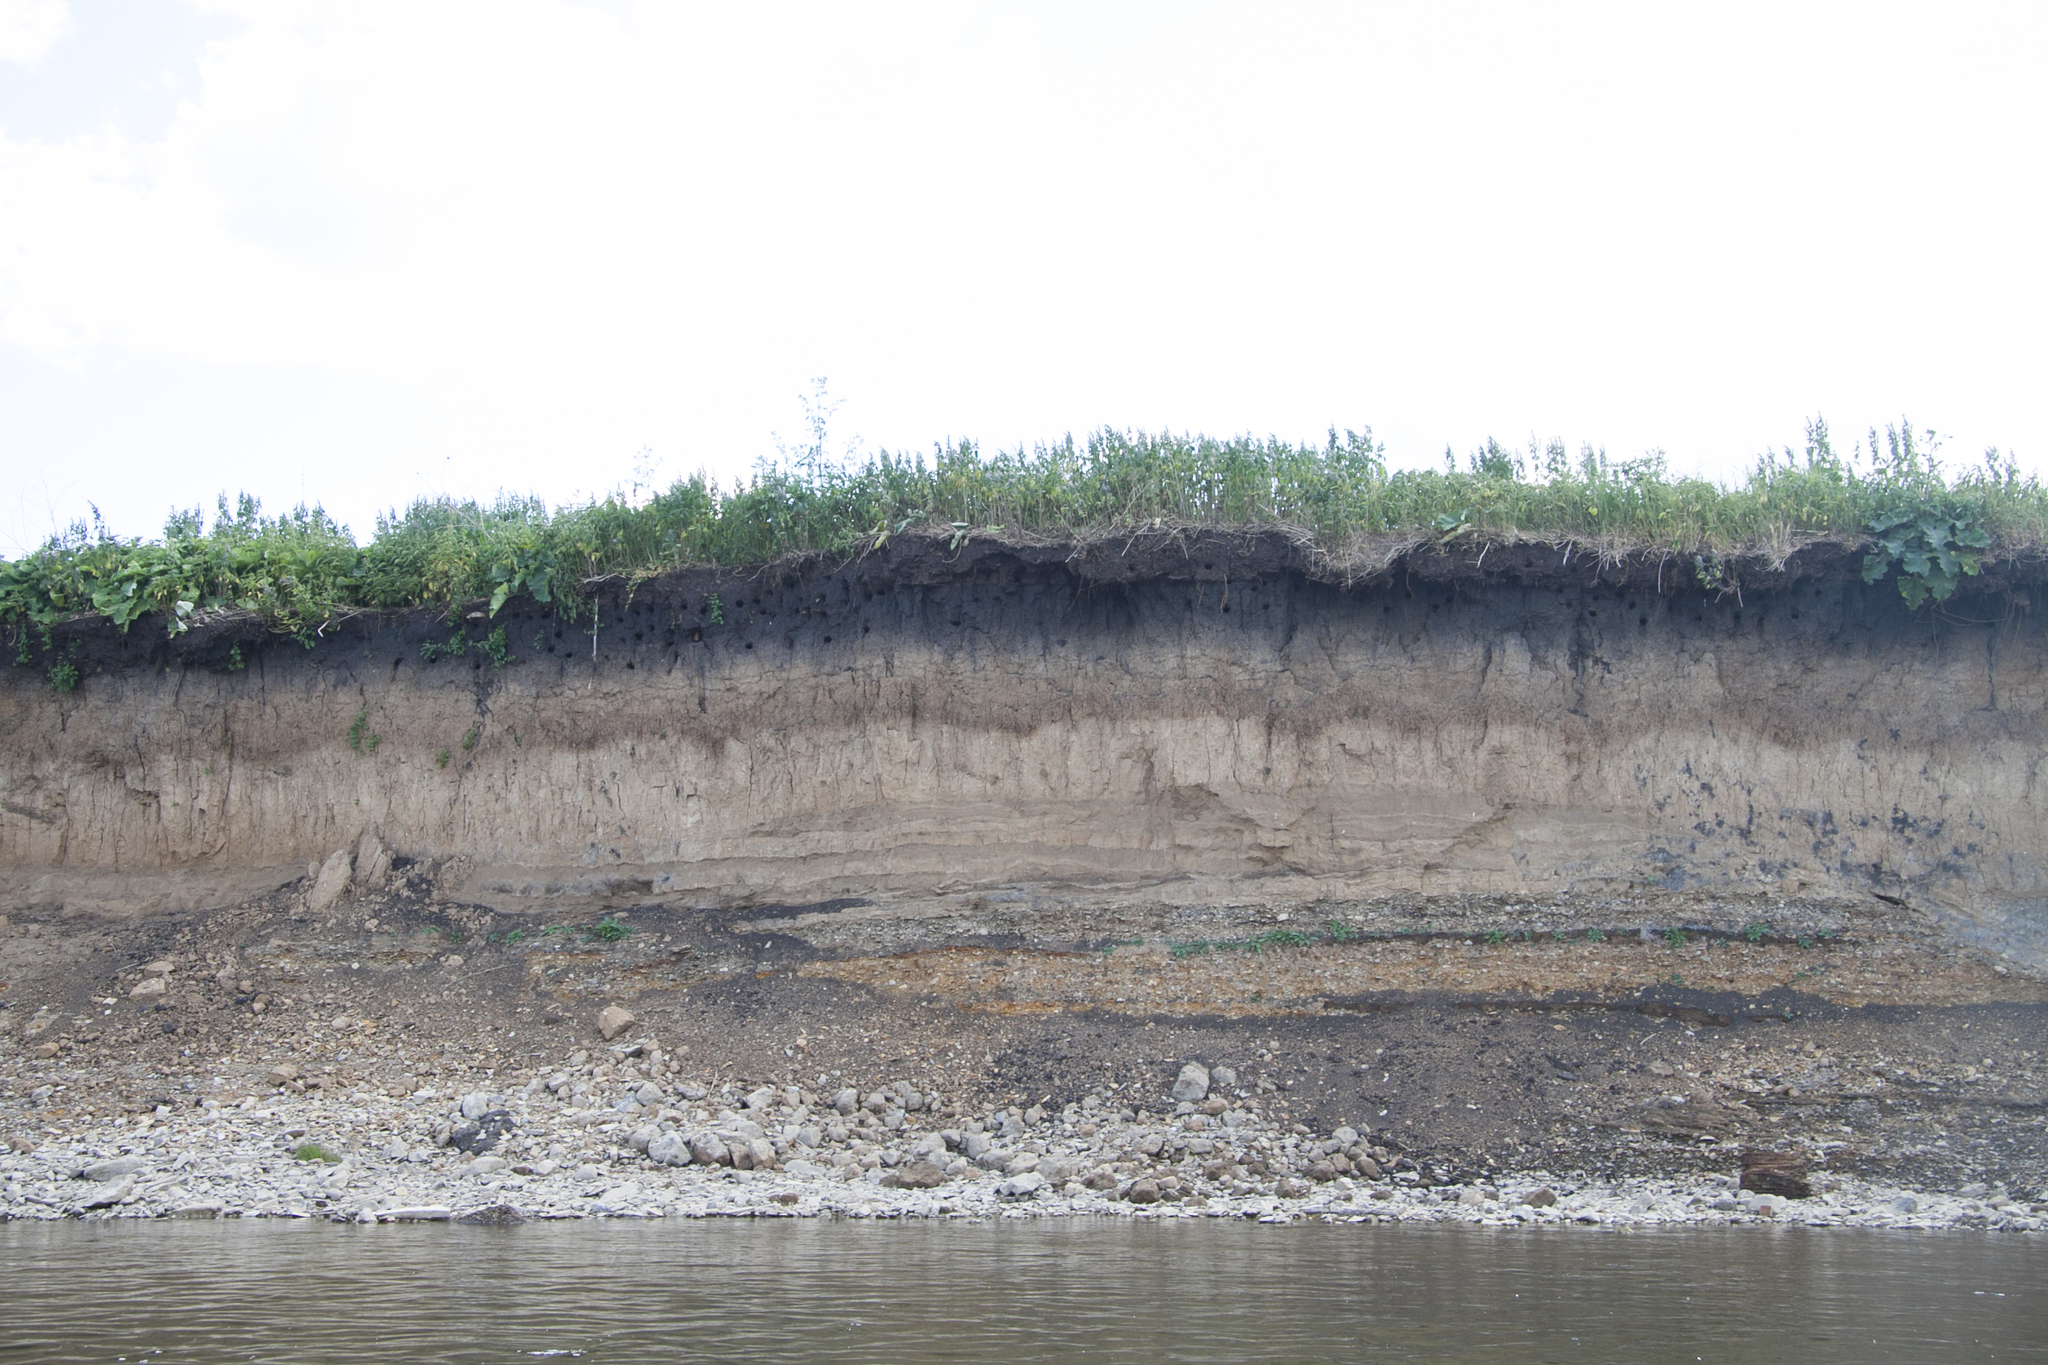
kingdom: Animalia
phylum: Chordata
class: Aves
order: Passeriformes
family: Hirundinidae
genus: Riparia
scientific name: Riparia riparia
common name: Sand martin
